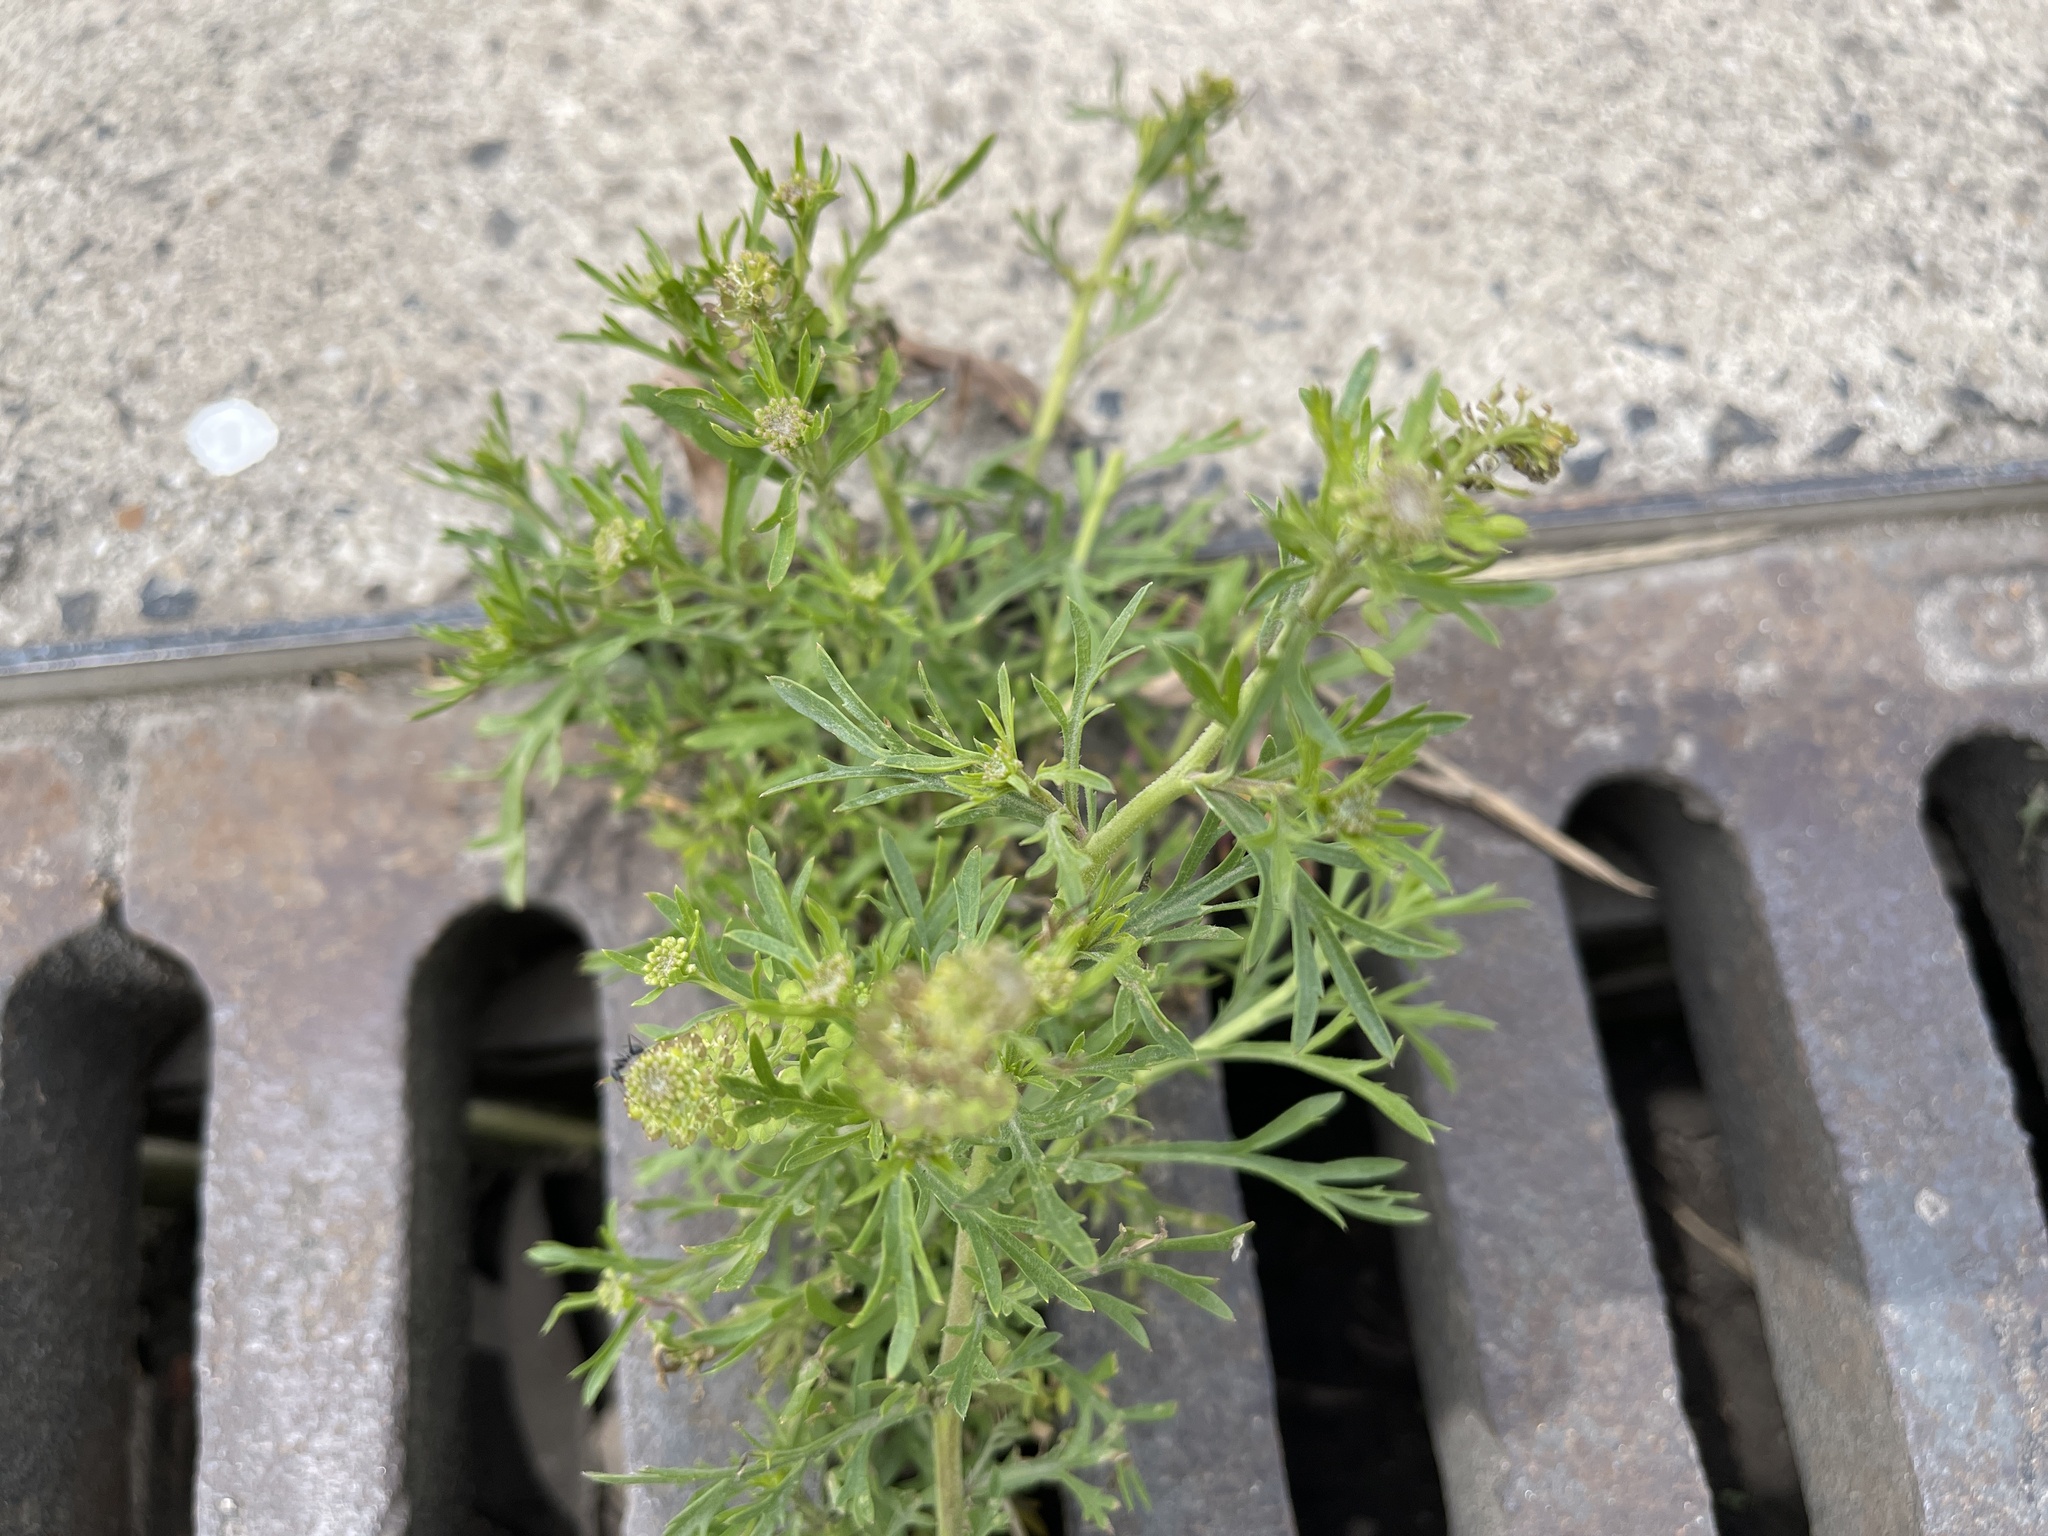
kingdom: Plantae
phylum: Tracheophyta
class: Magnoliopsida
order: Brassicales
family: Brassicaceae
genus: Lepidium
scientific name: Lepidium bonariense
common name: Argentine pepperwort
